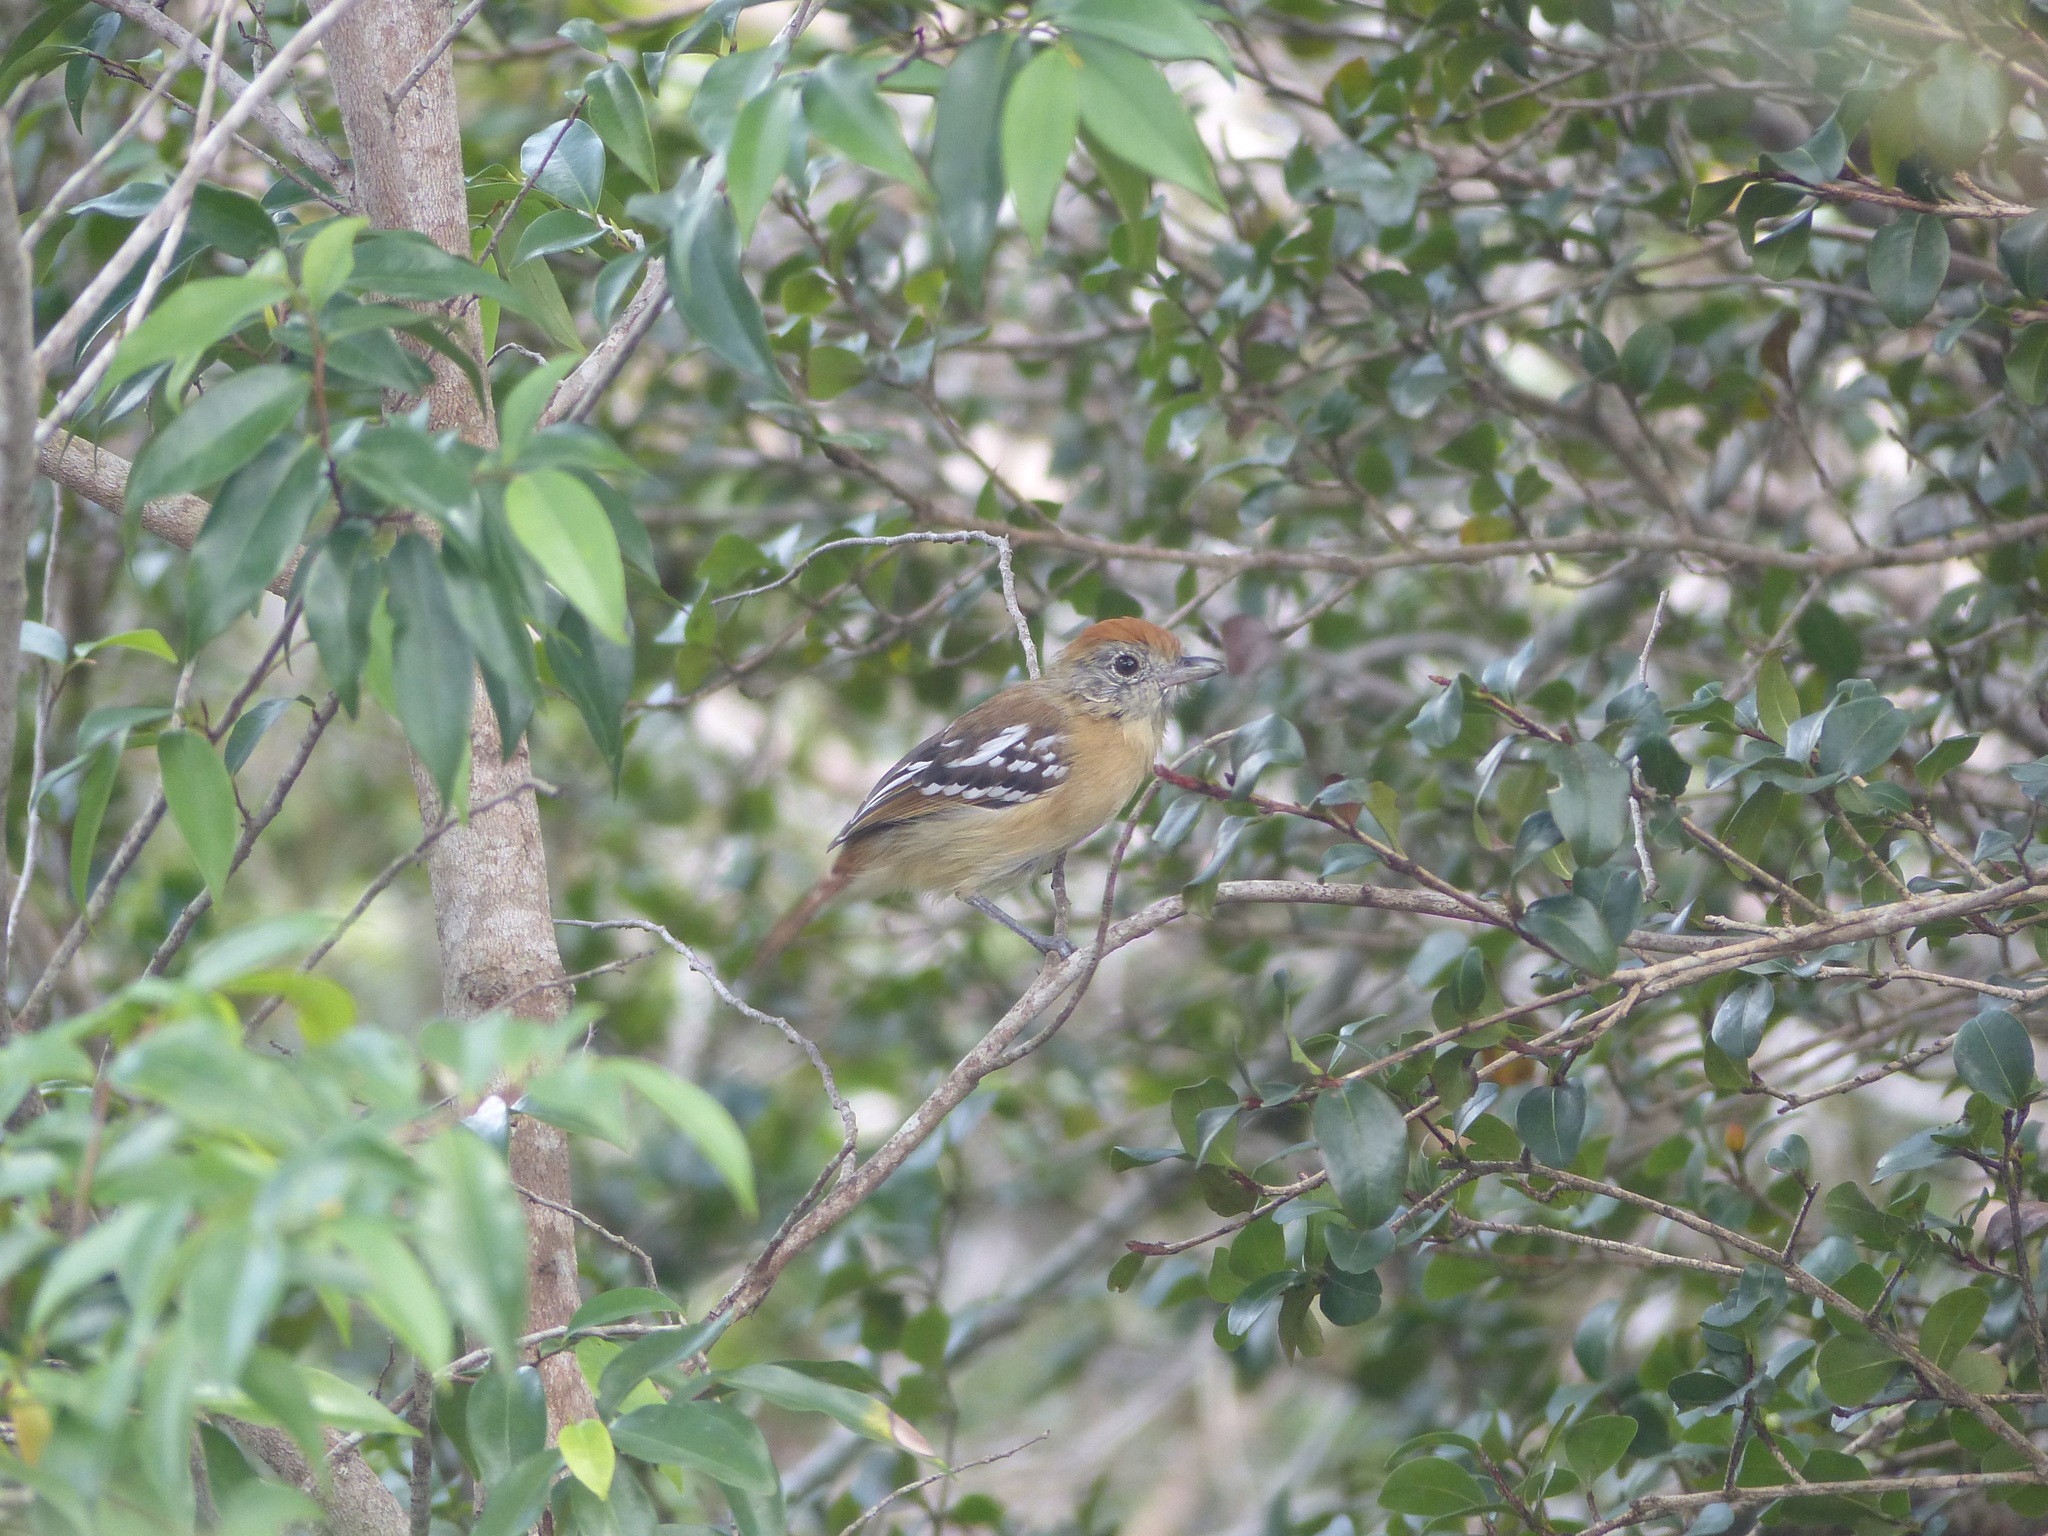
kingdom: Animalia
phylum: Chordata
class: Aves
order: Passeriformes
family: Thamnophilidae
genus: Thamnophilus
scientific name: Thamnophilus pelzelni
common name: Planalto slaty-antshrike
